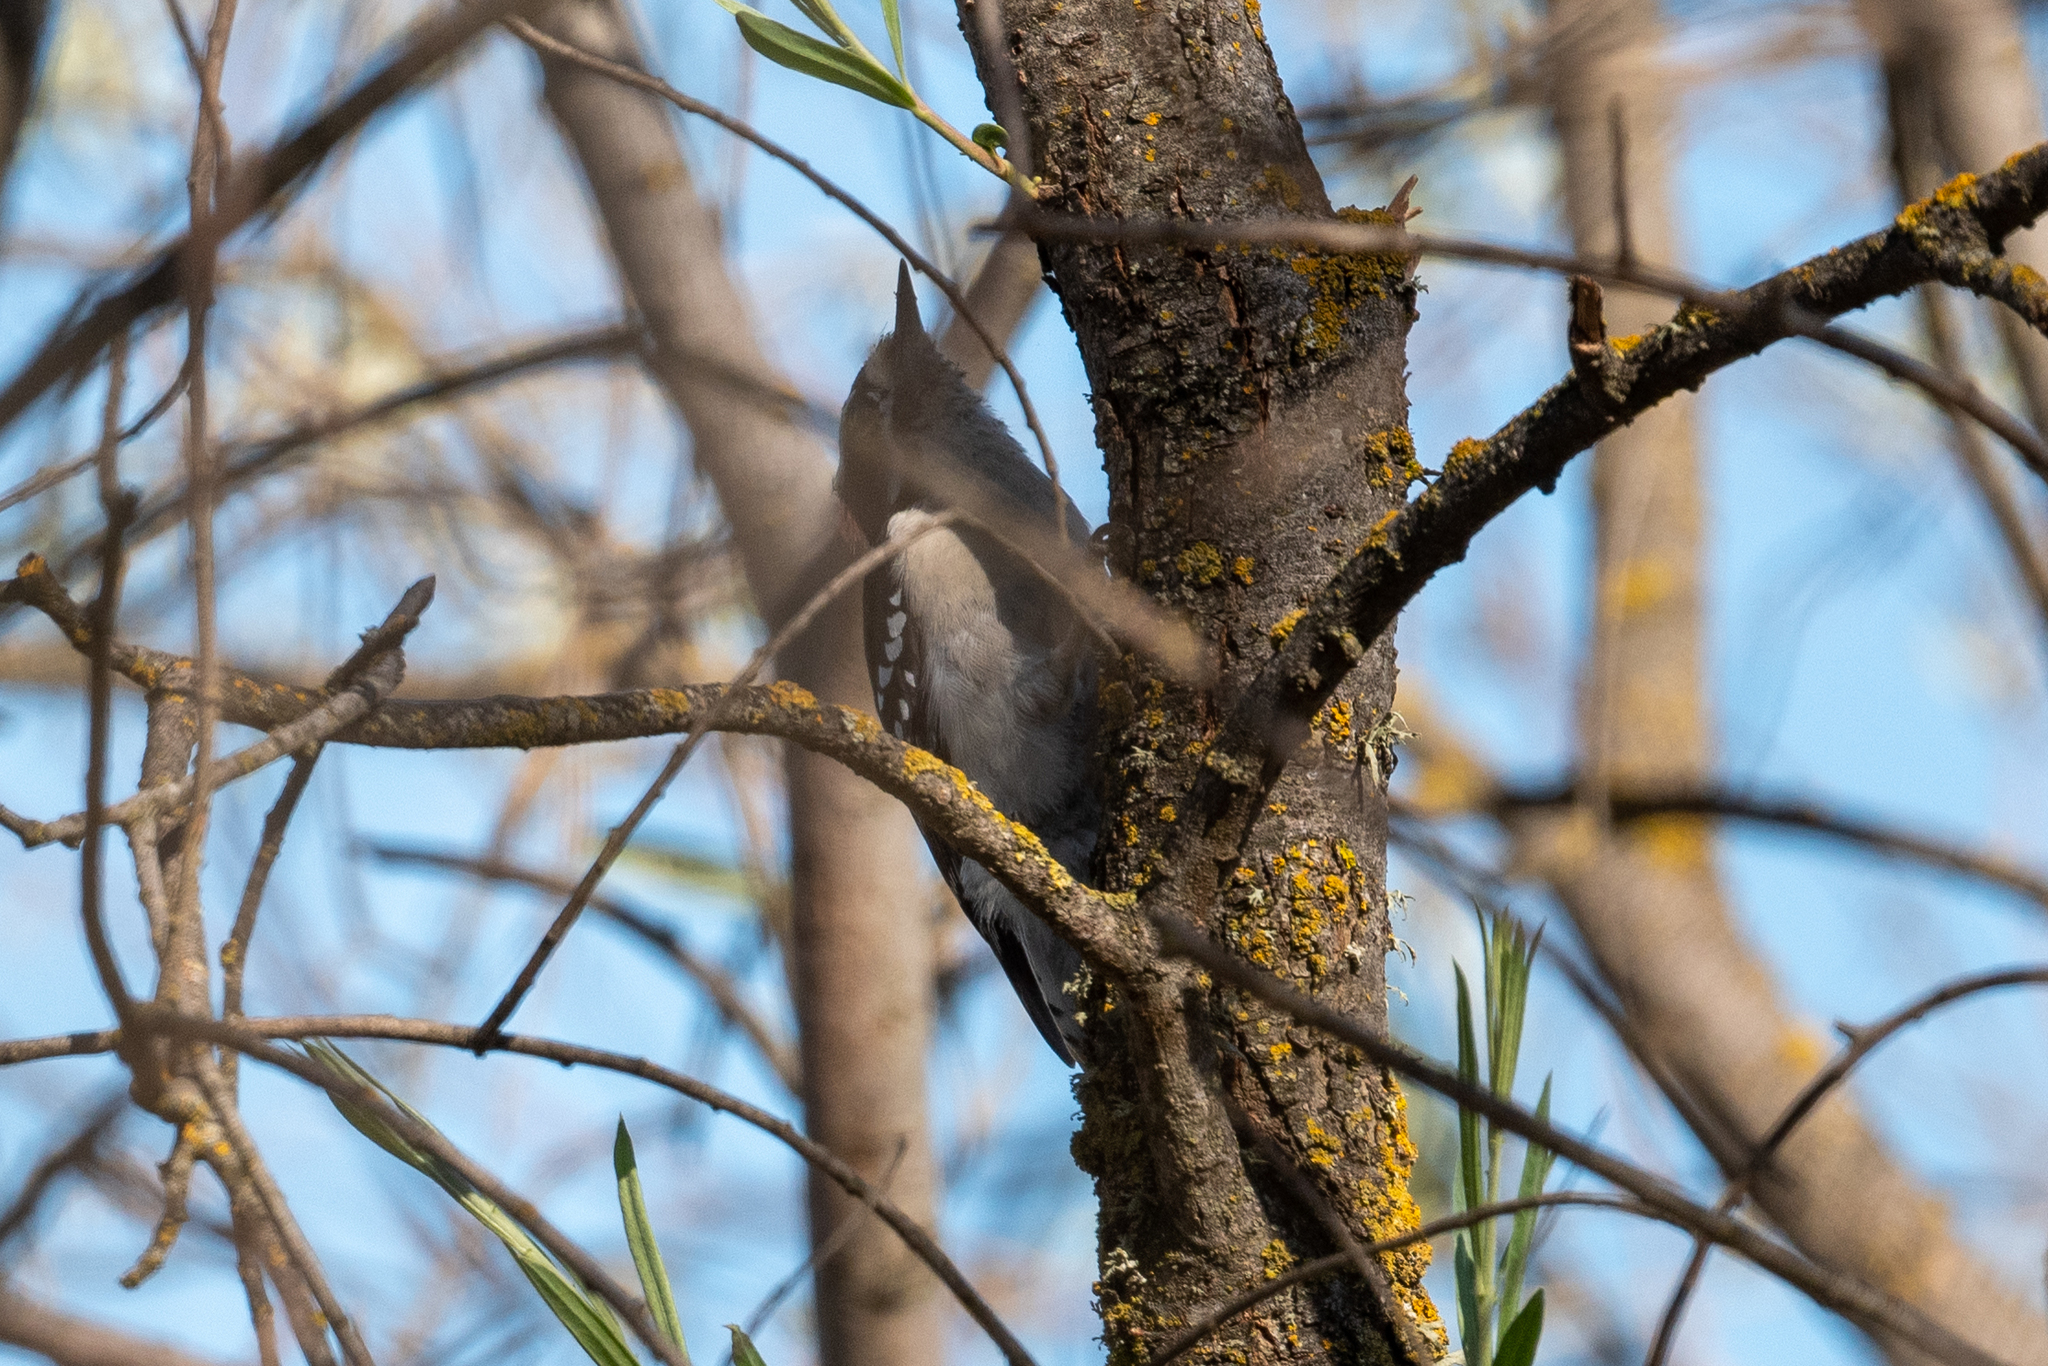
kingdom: Animalia
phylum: Chordata
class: Aves
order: Piciformes
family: Picidae
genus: Dryobates
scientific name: Dryobates pubescens
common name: Downy woodpecker
